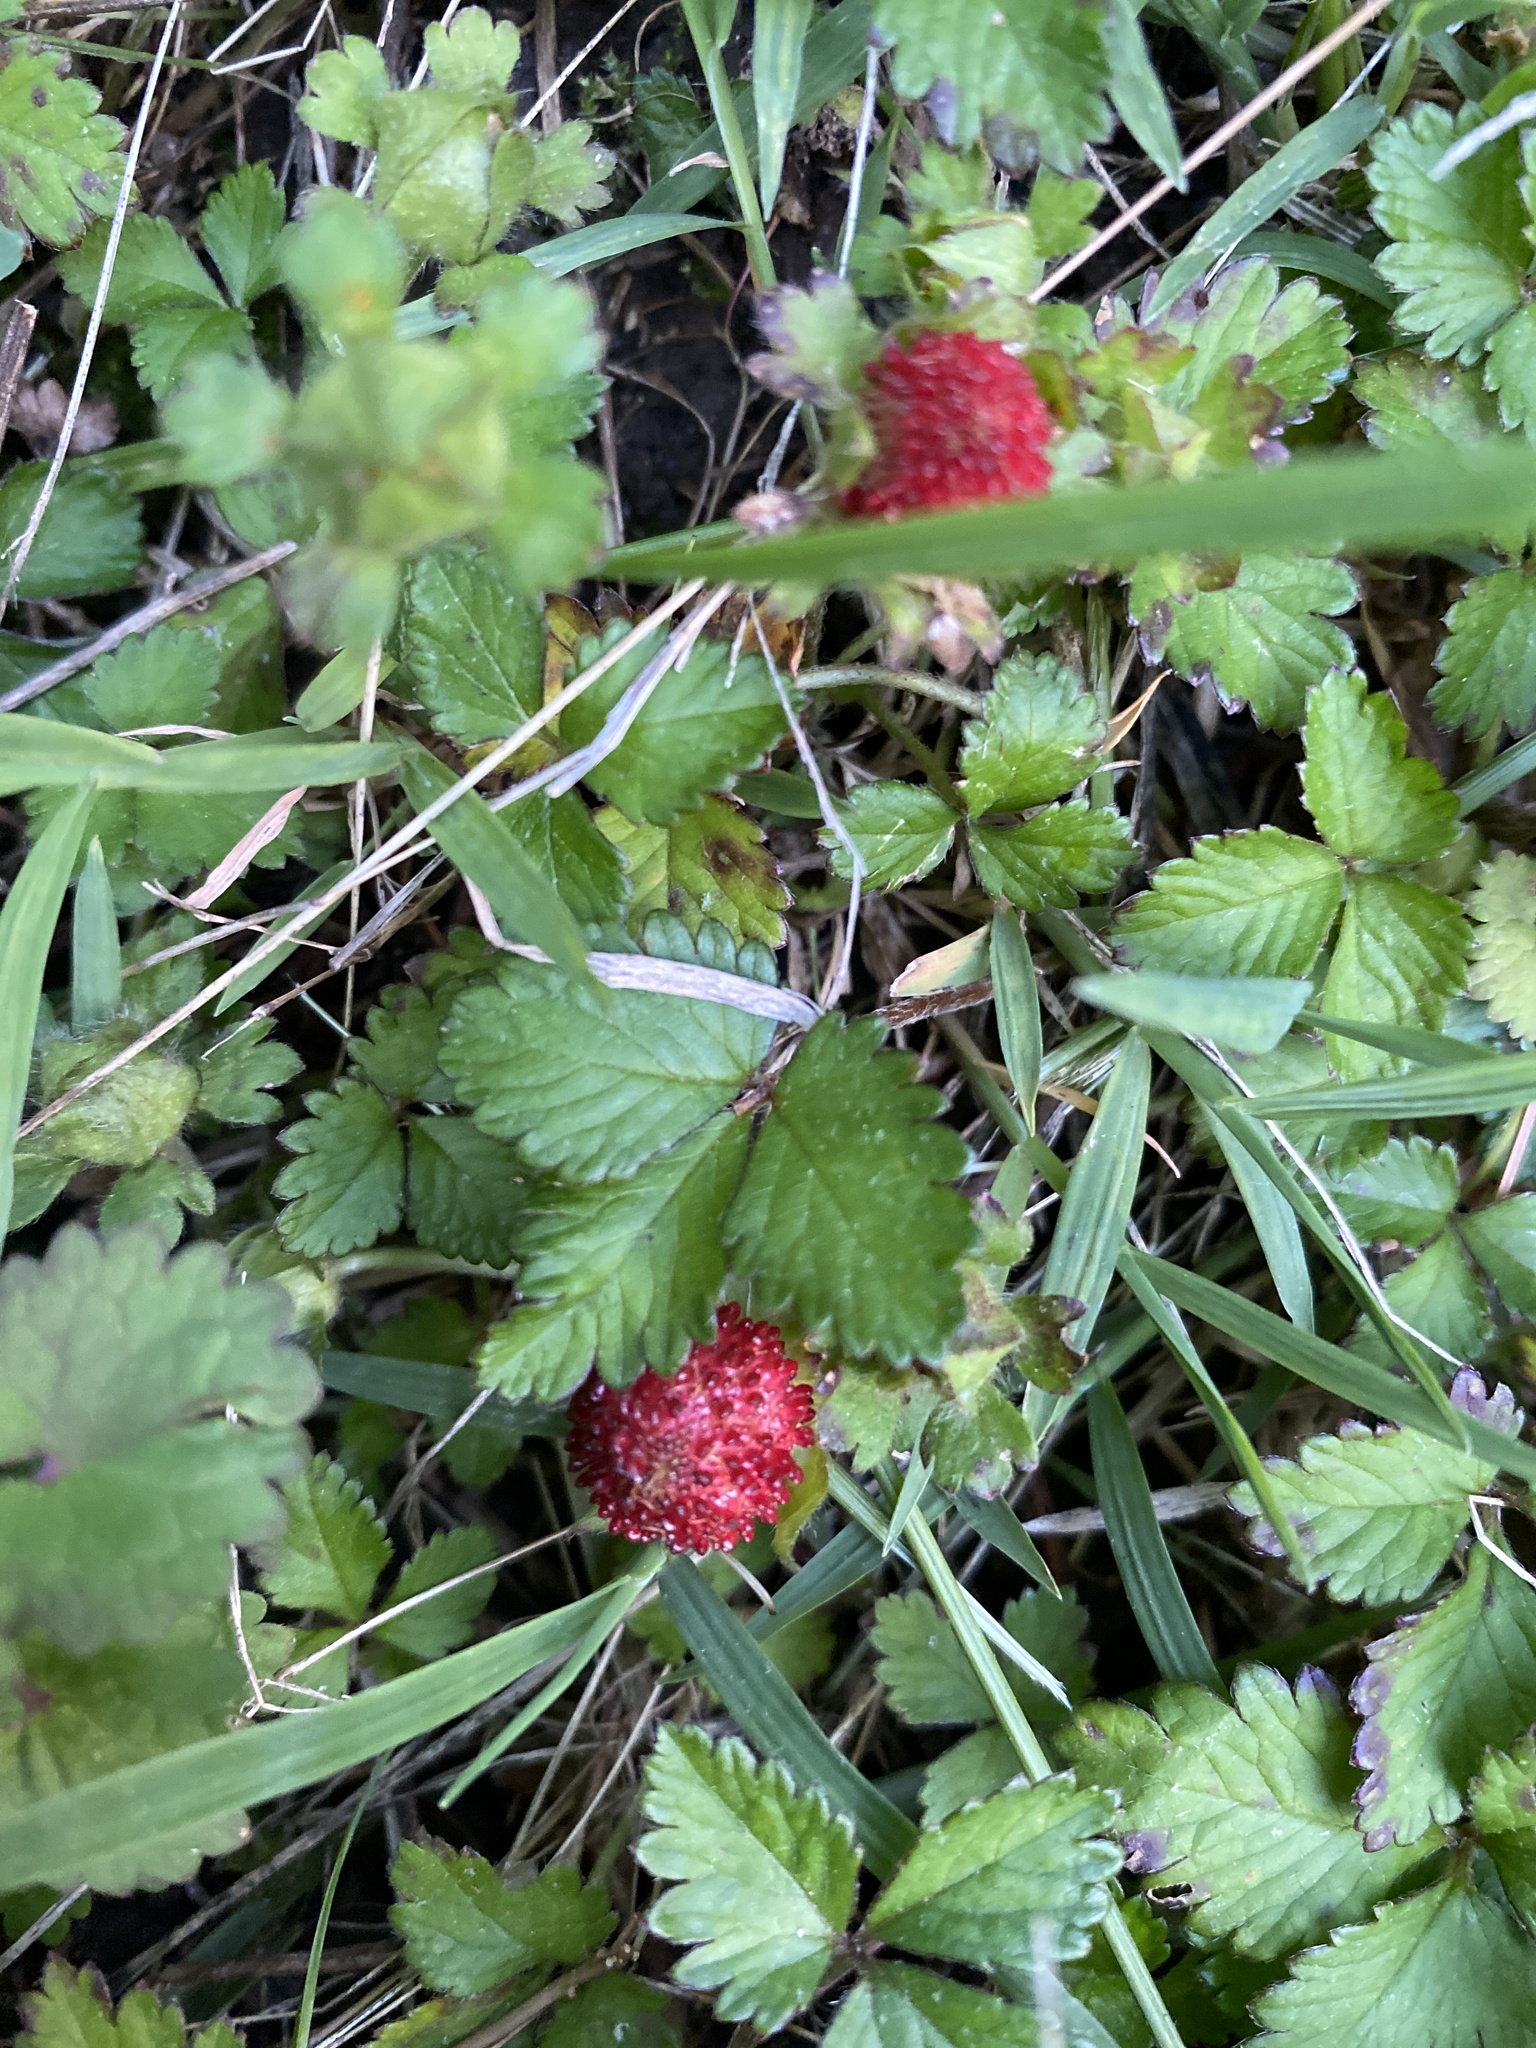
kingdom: Plantae
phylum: Tracheophyta
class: Magnoliopsida
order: Rosales
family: Rosaceae
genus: Potentilla
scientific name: Potentilla indica
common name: Yellow-flowered strawberry
